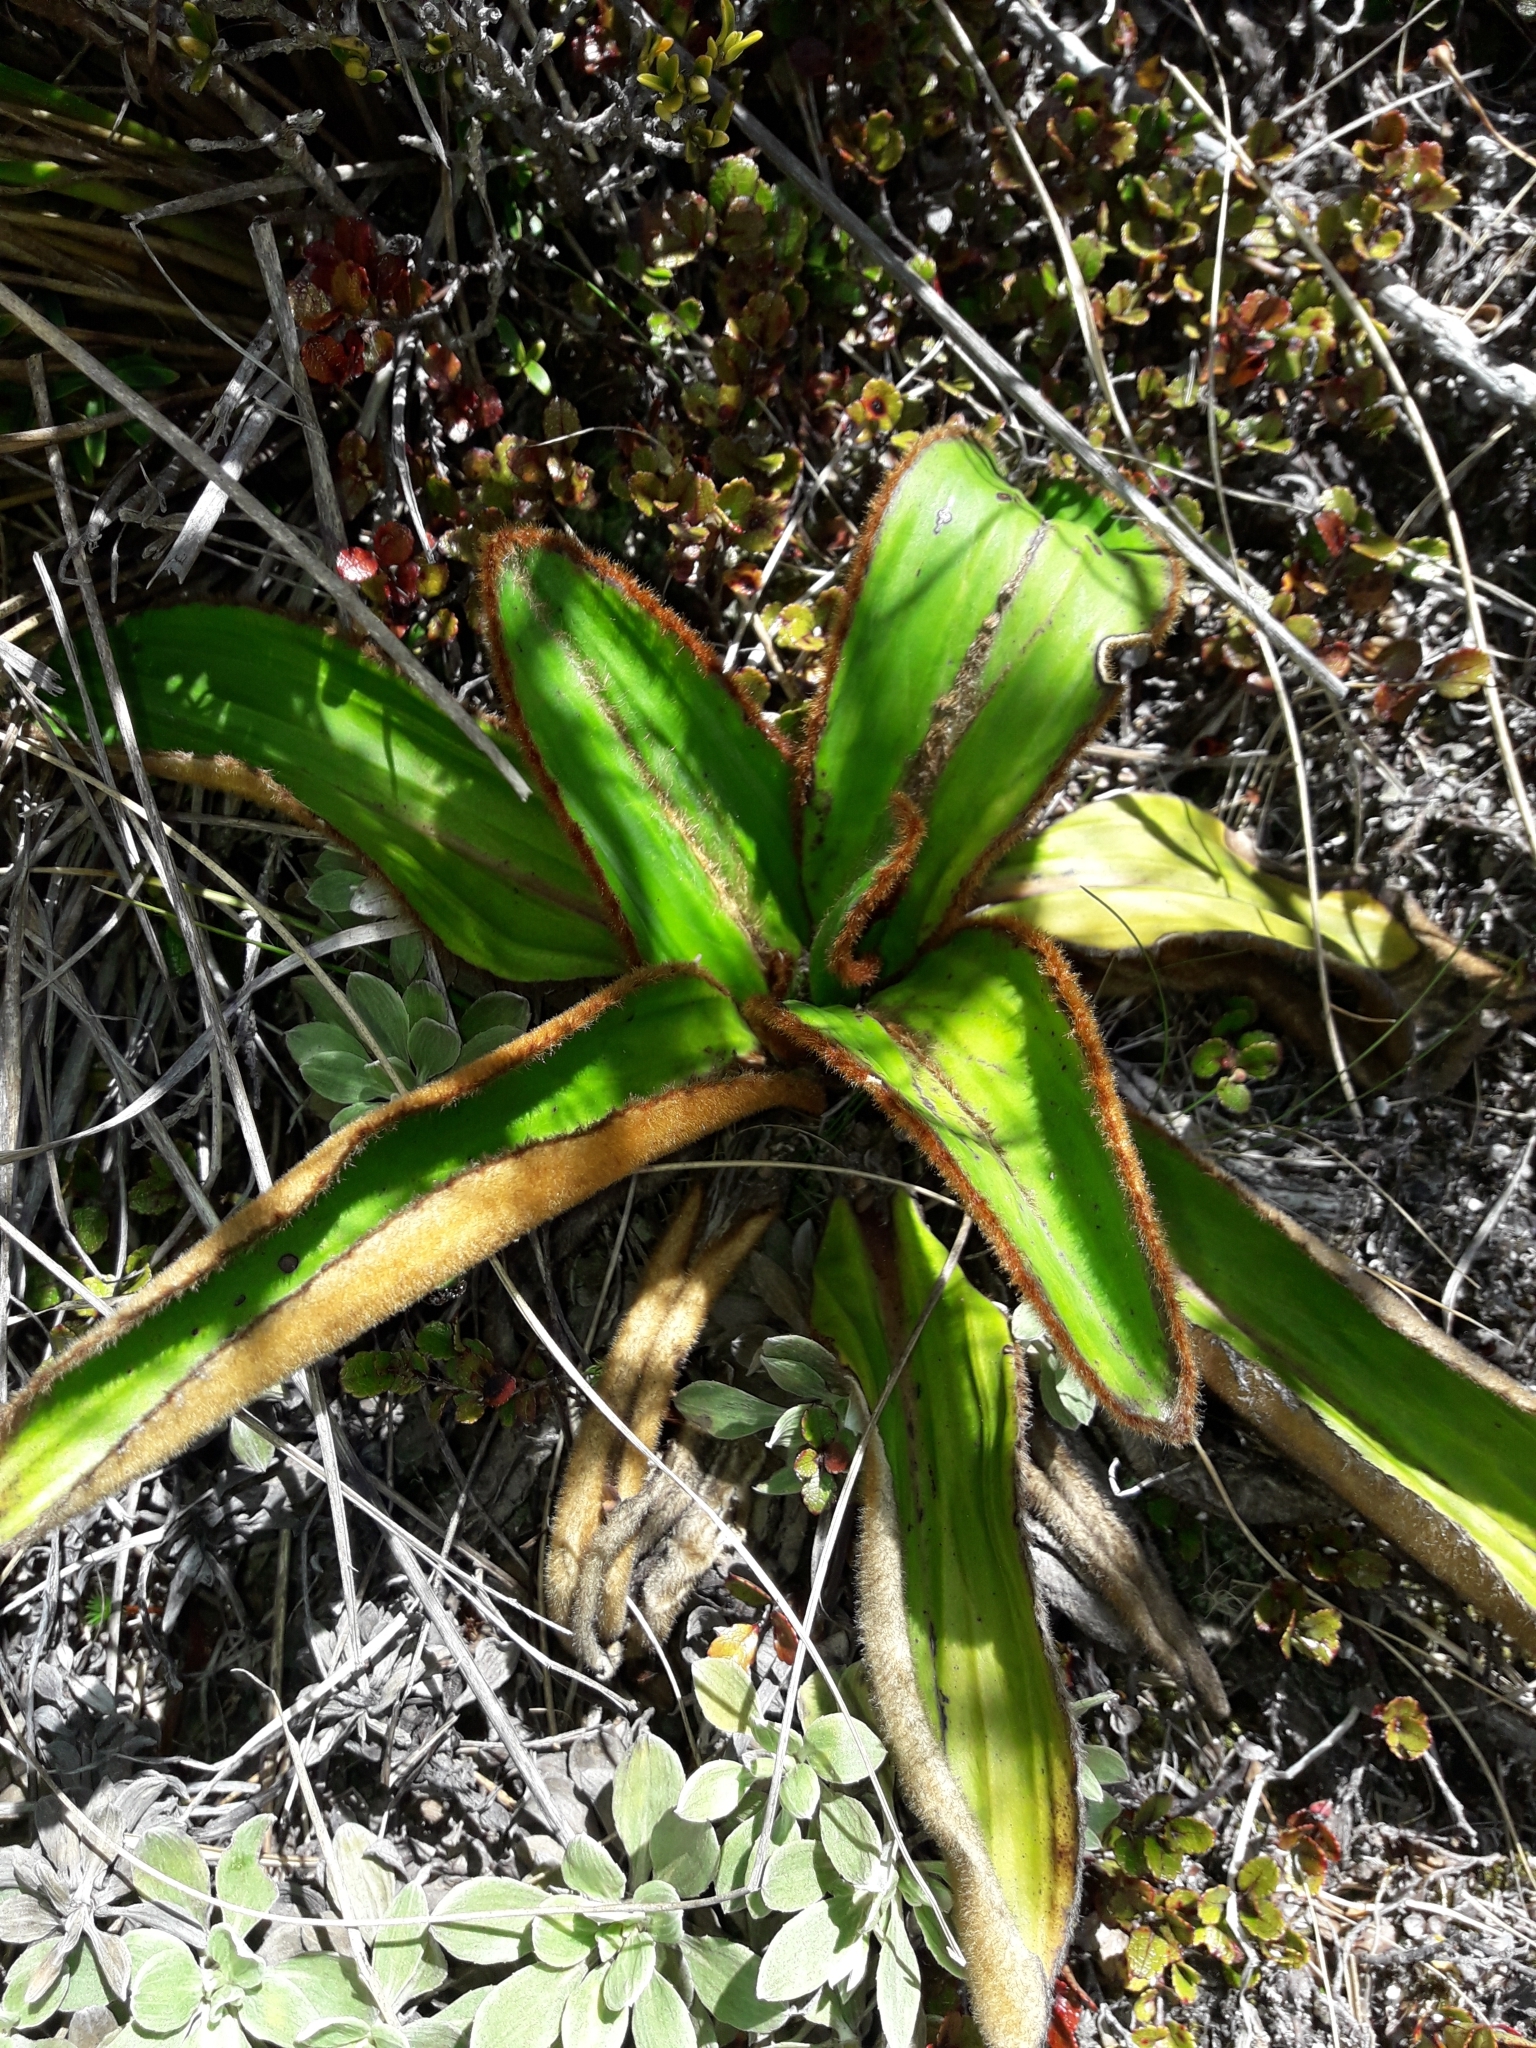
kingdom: Plantae
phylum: Tracheophyta
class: Magnoliopsida
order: Asterales
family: Asteraceae
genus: Celmisia
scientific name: Celmisia traversii
